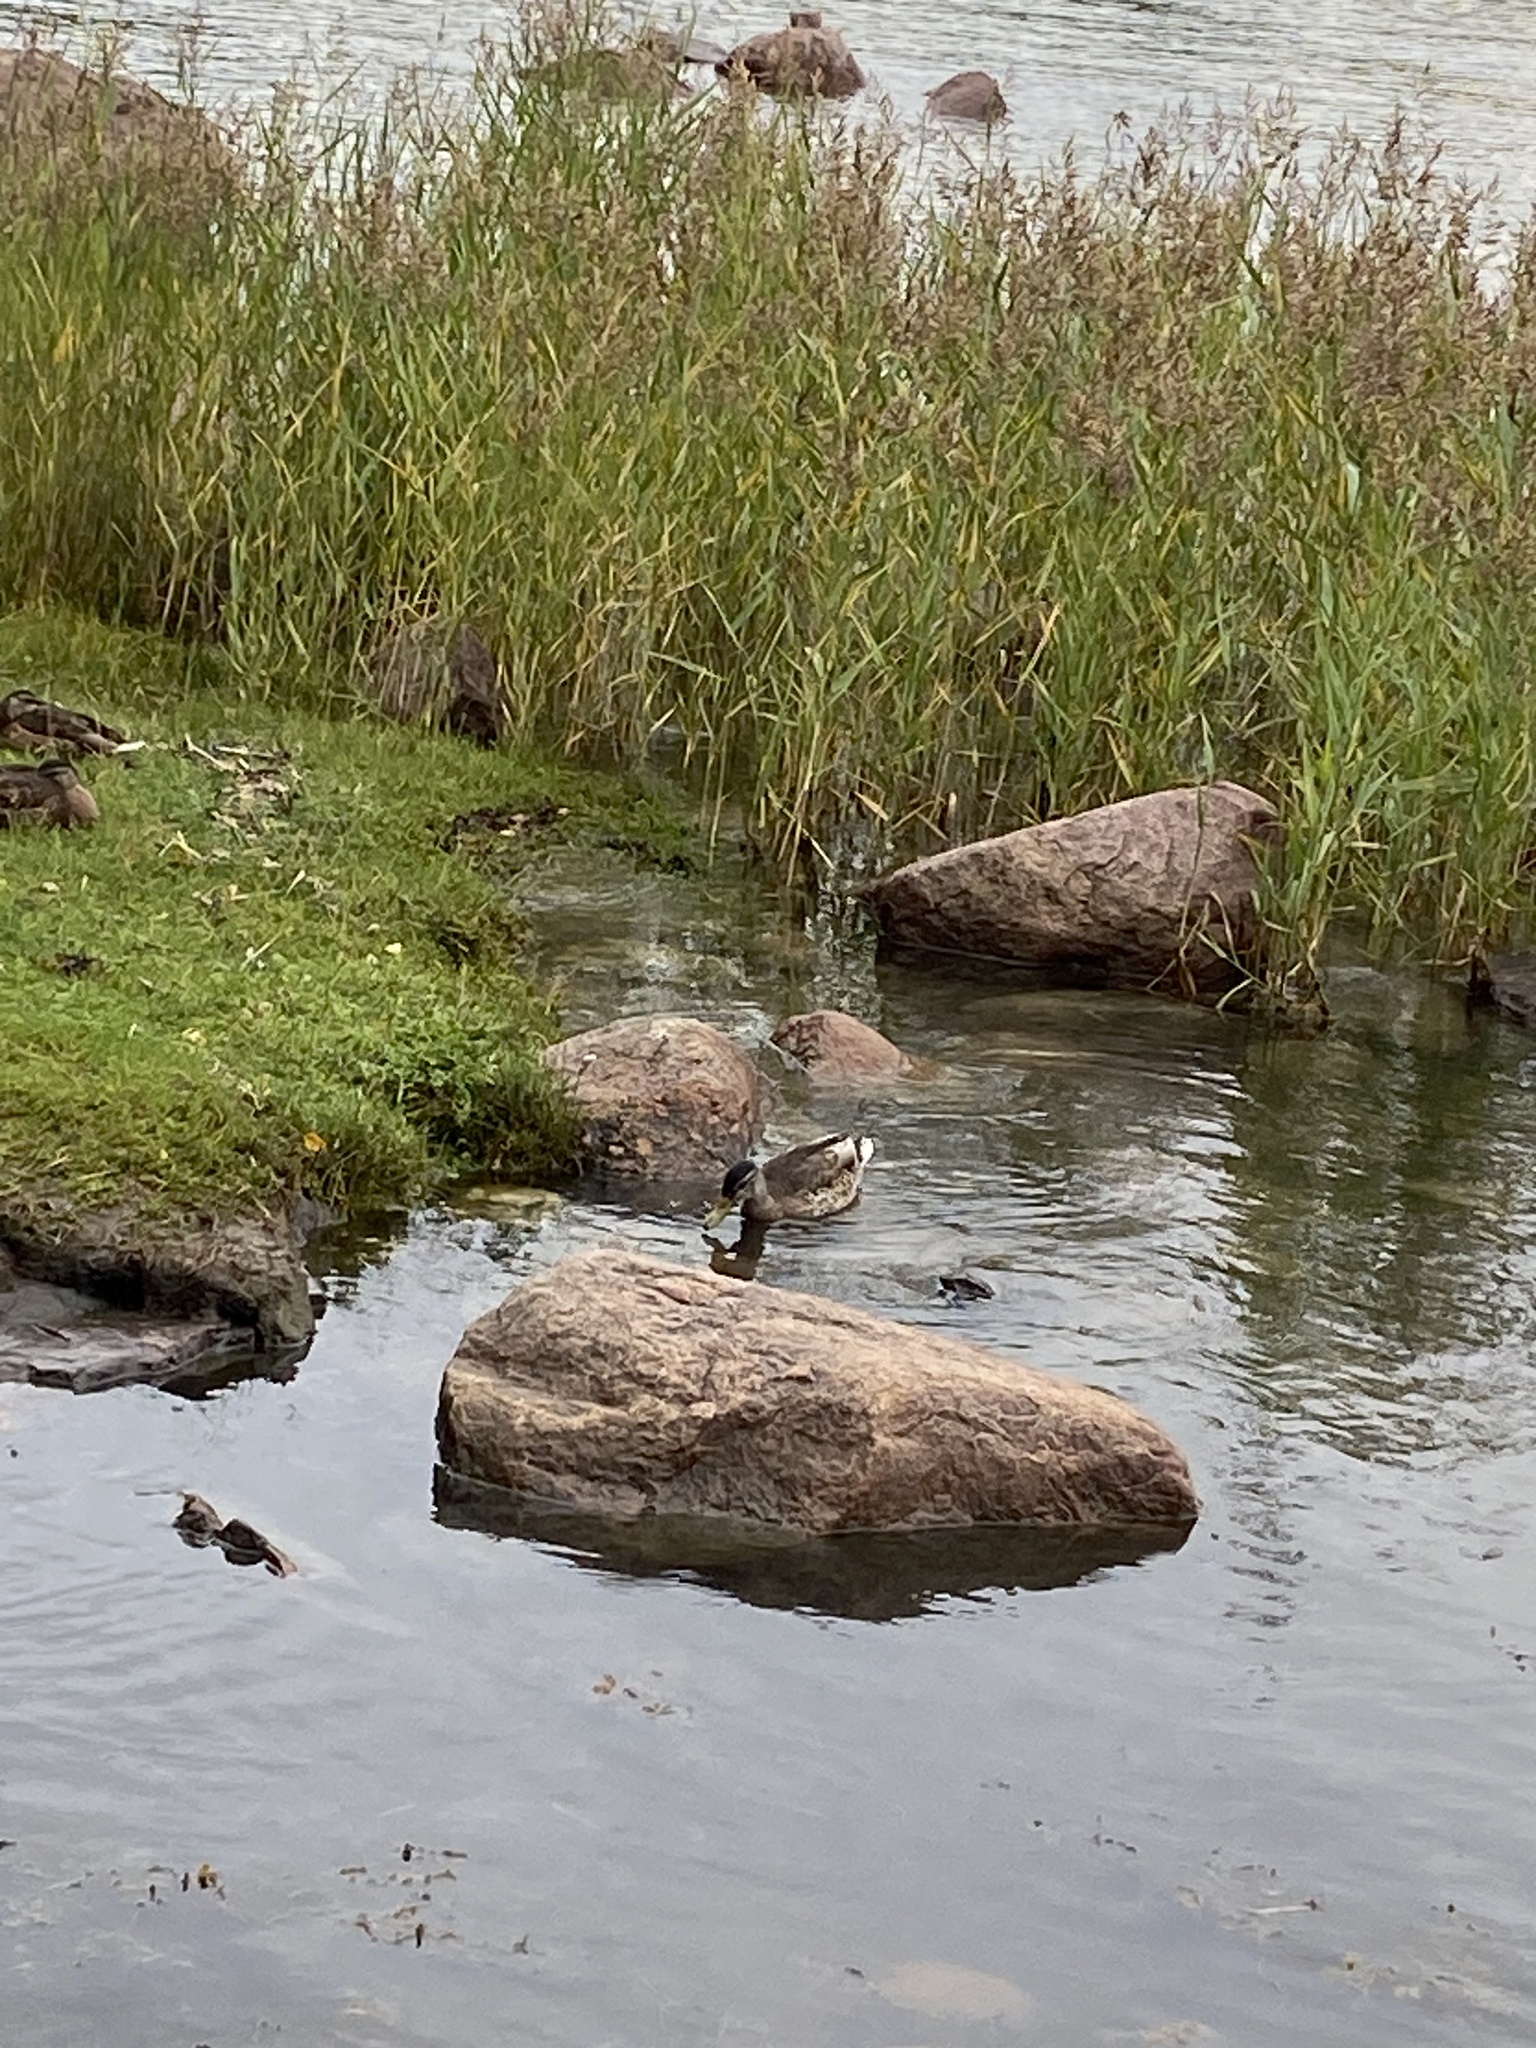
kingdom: Animalia
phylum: Chordata
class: Aves
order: Anseriformes
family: Anatidae
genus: Anas
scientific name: Anas platyrhynchos
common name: Mallard
